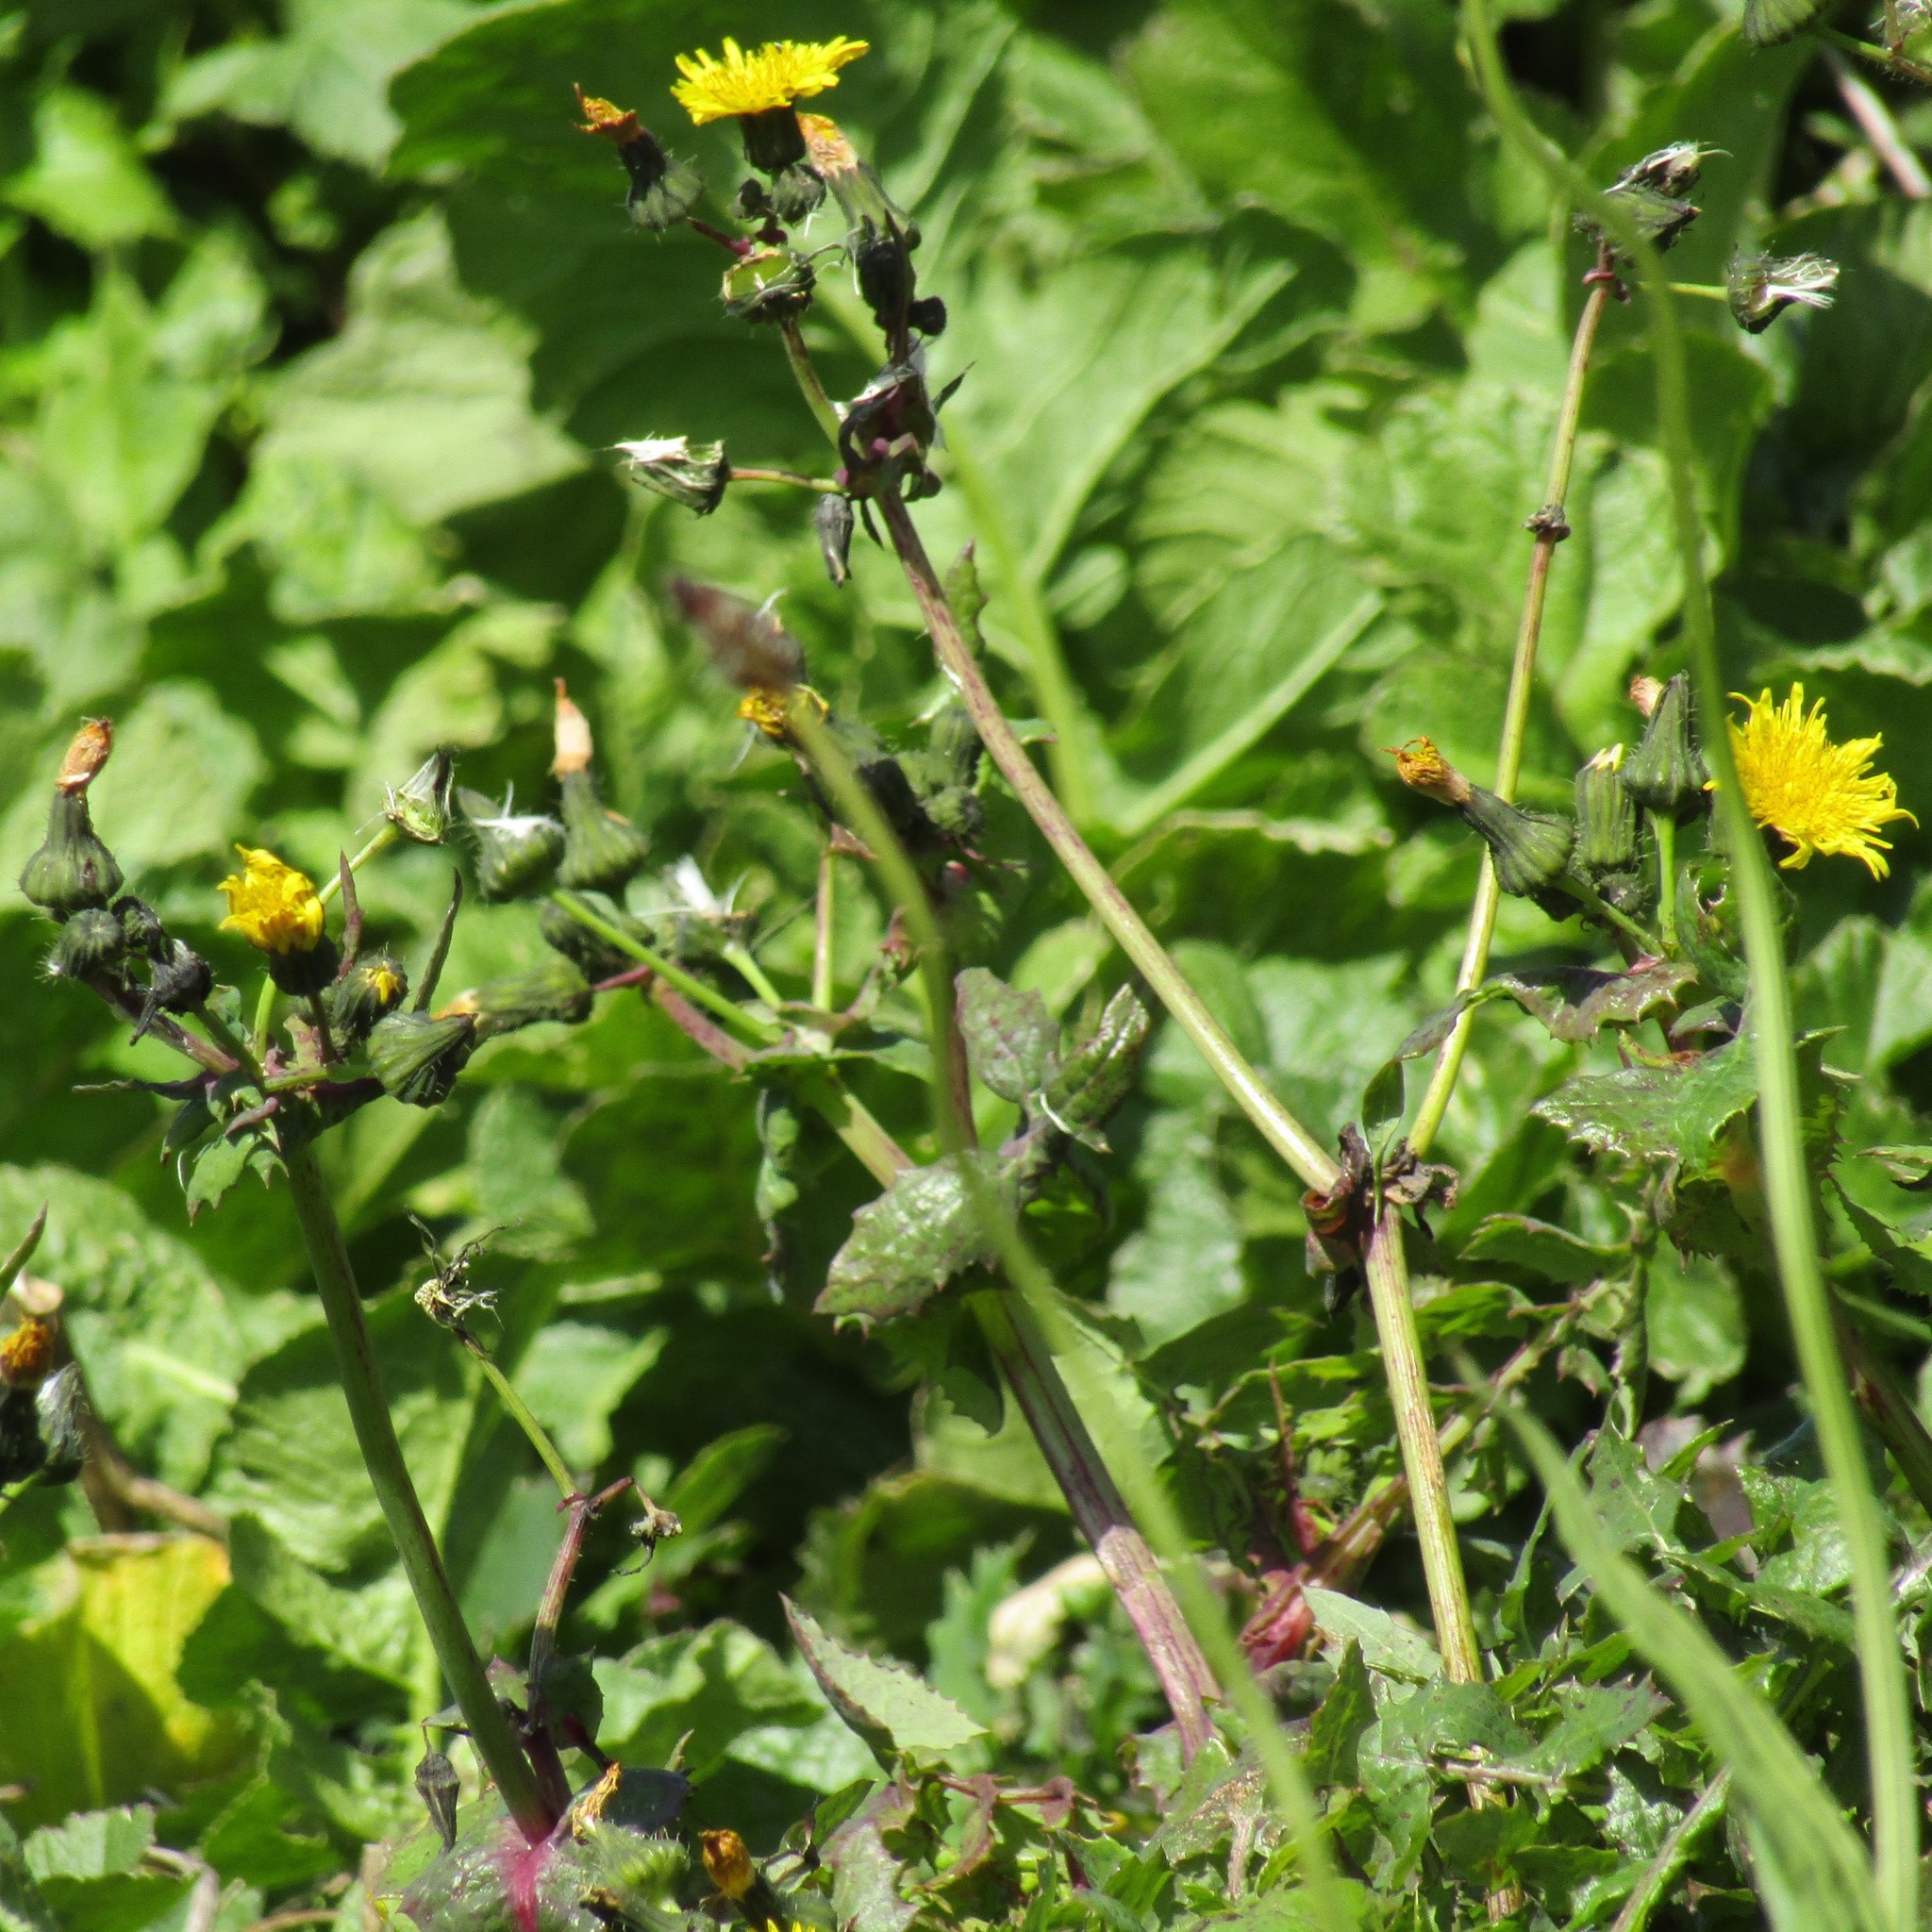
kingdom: Plantae
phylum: Tracheophyta
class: Magnoliopsida
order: Asterales
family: Asteraceae
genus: Sonchus
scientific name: Sonchus oleraceus
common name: Common sowthistle
